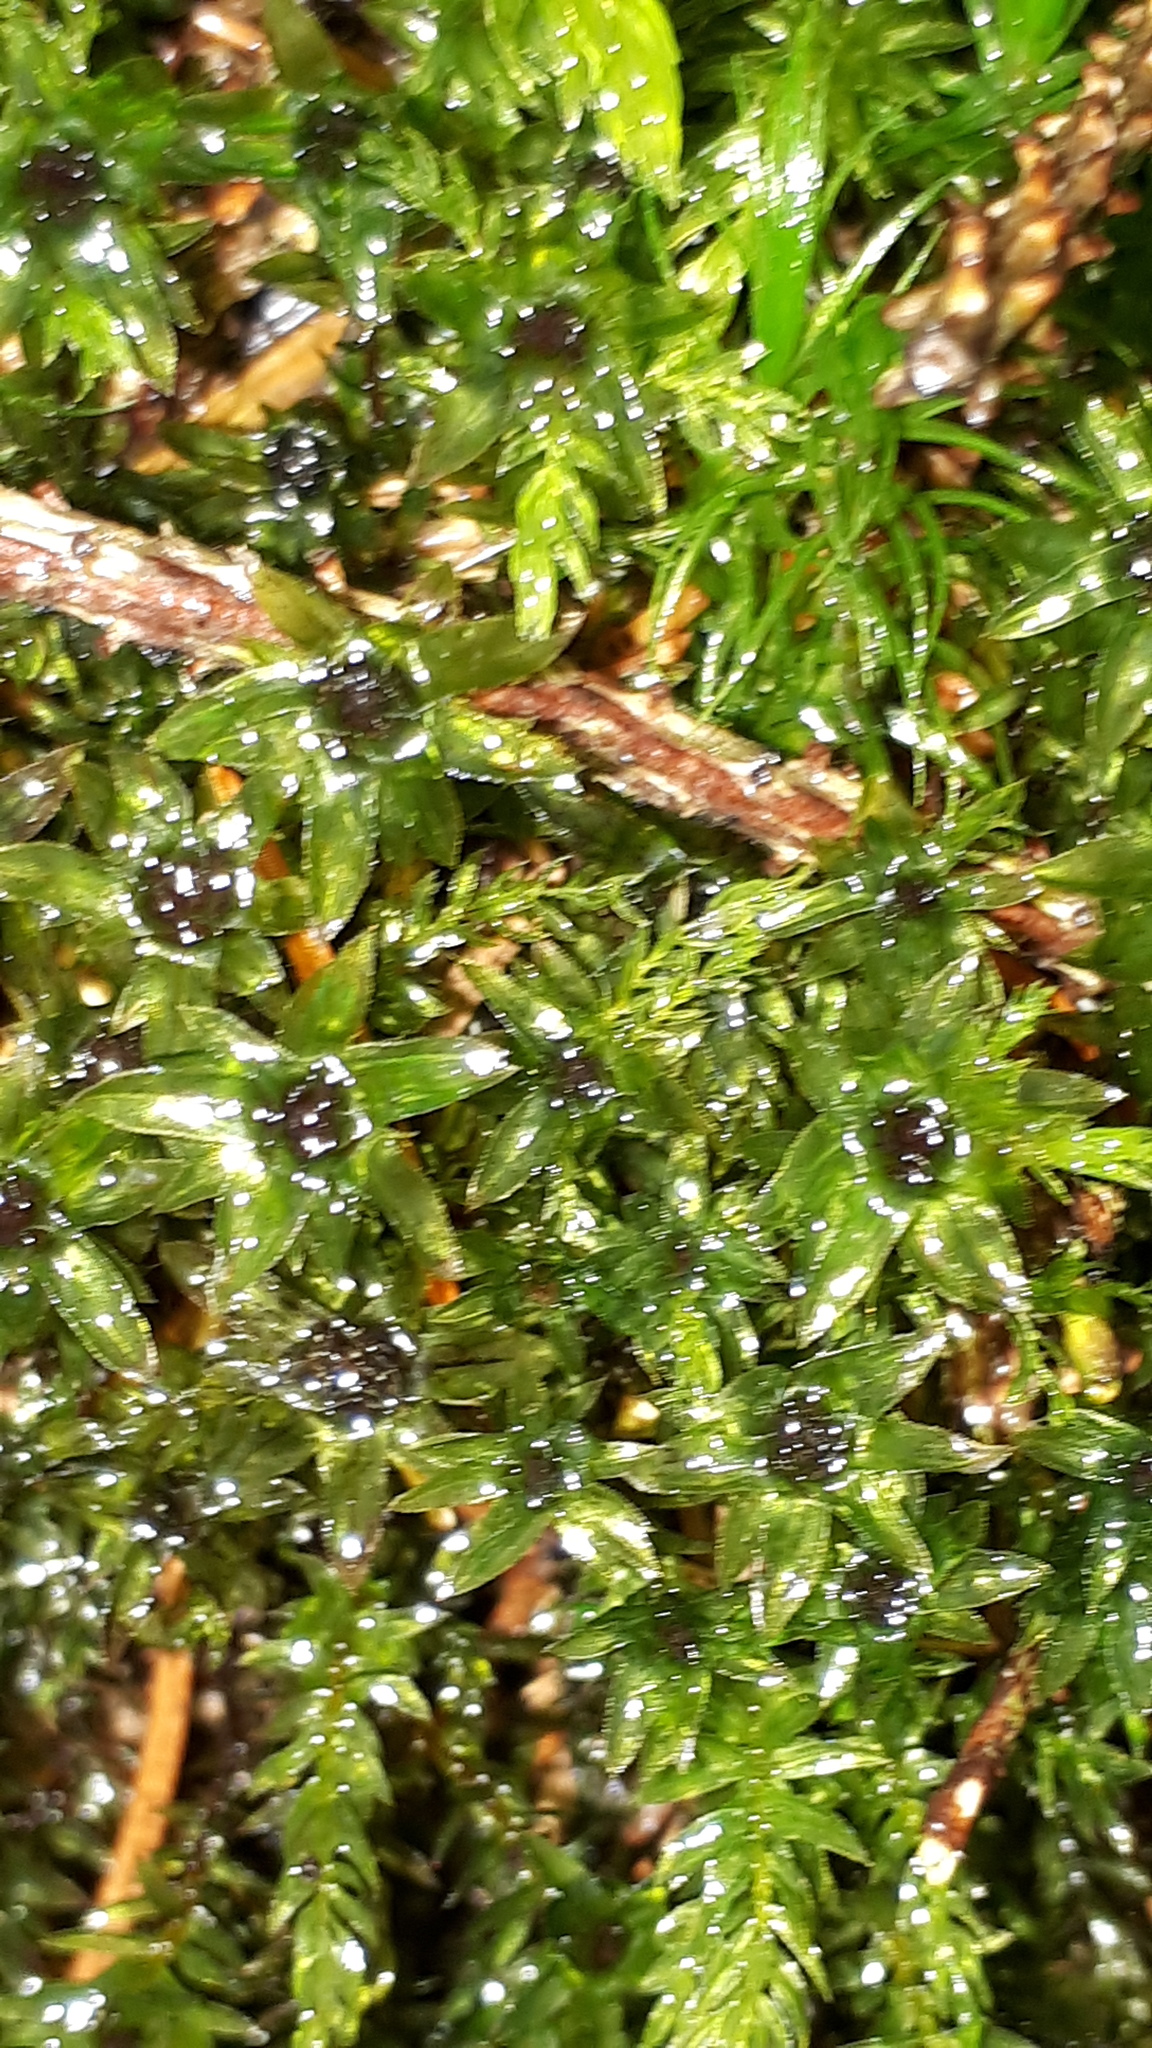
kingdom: Plantae
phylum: Bryophyta
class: Bryopsida
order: Bryales
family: Mniaceae
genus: Mnium
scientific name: Mnium hornum
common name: Swan's-neck leafy moss
